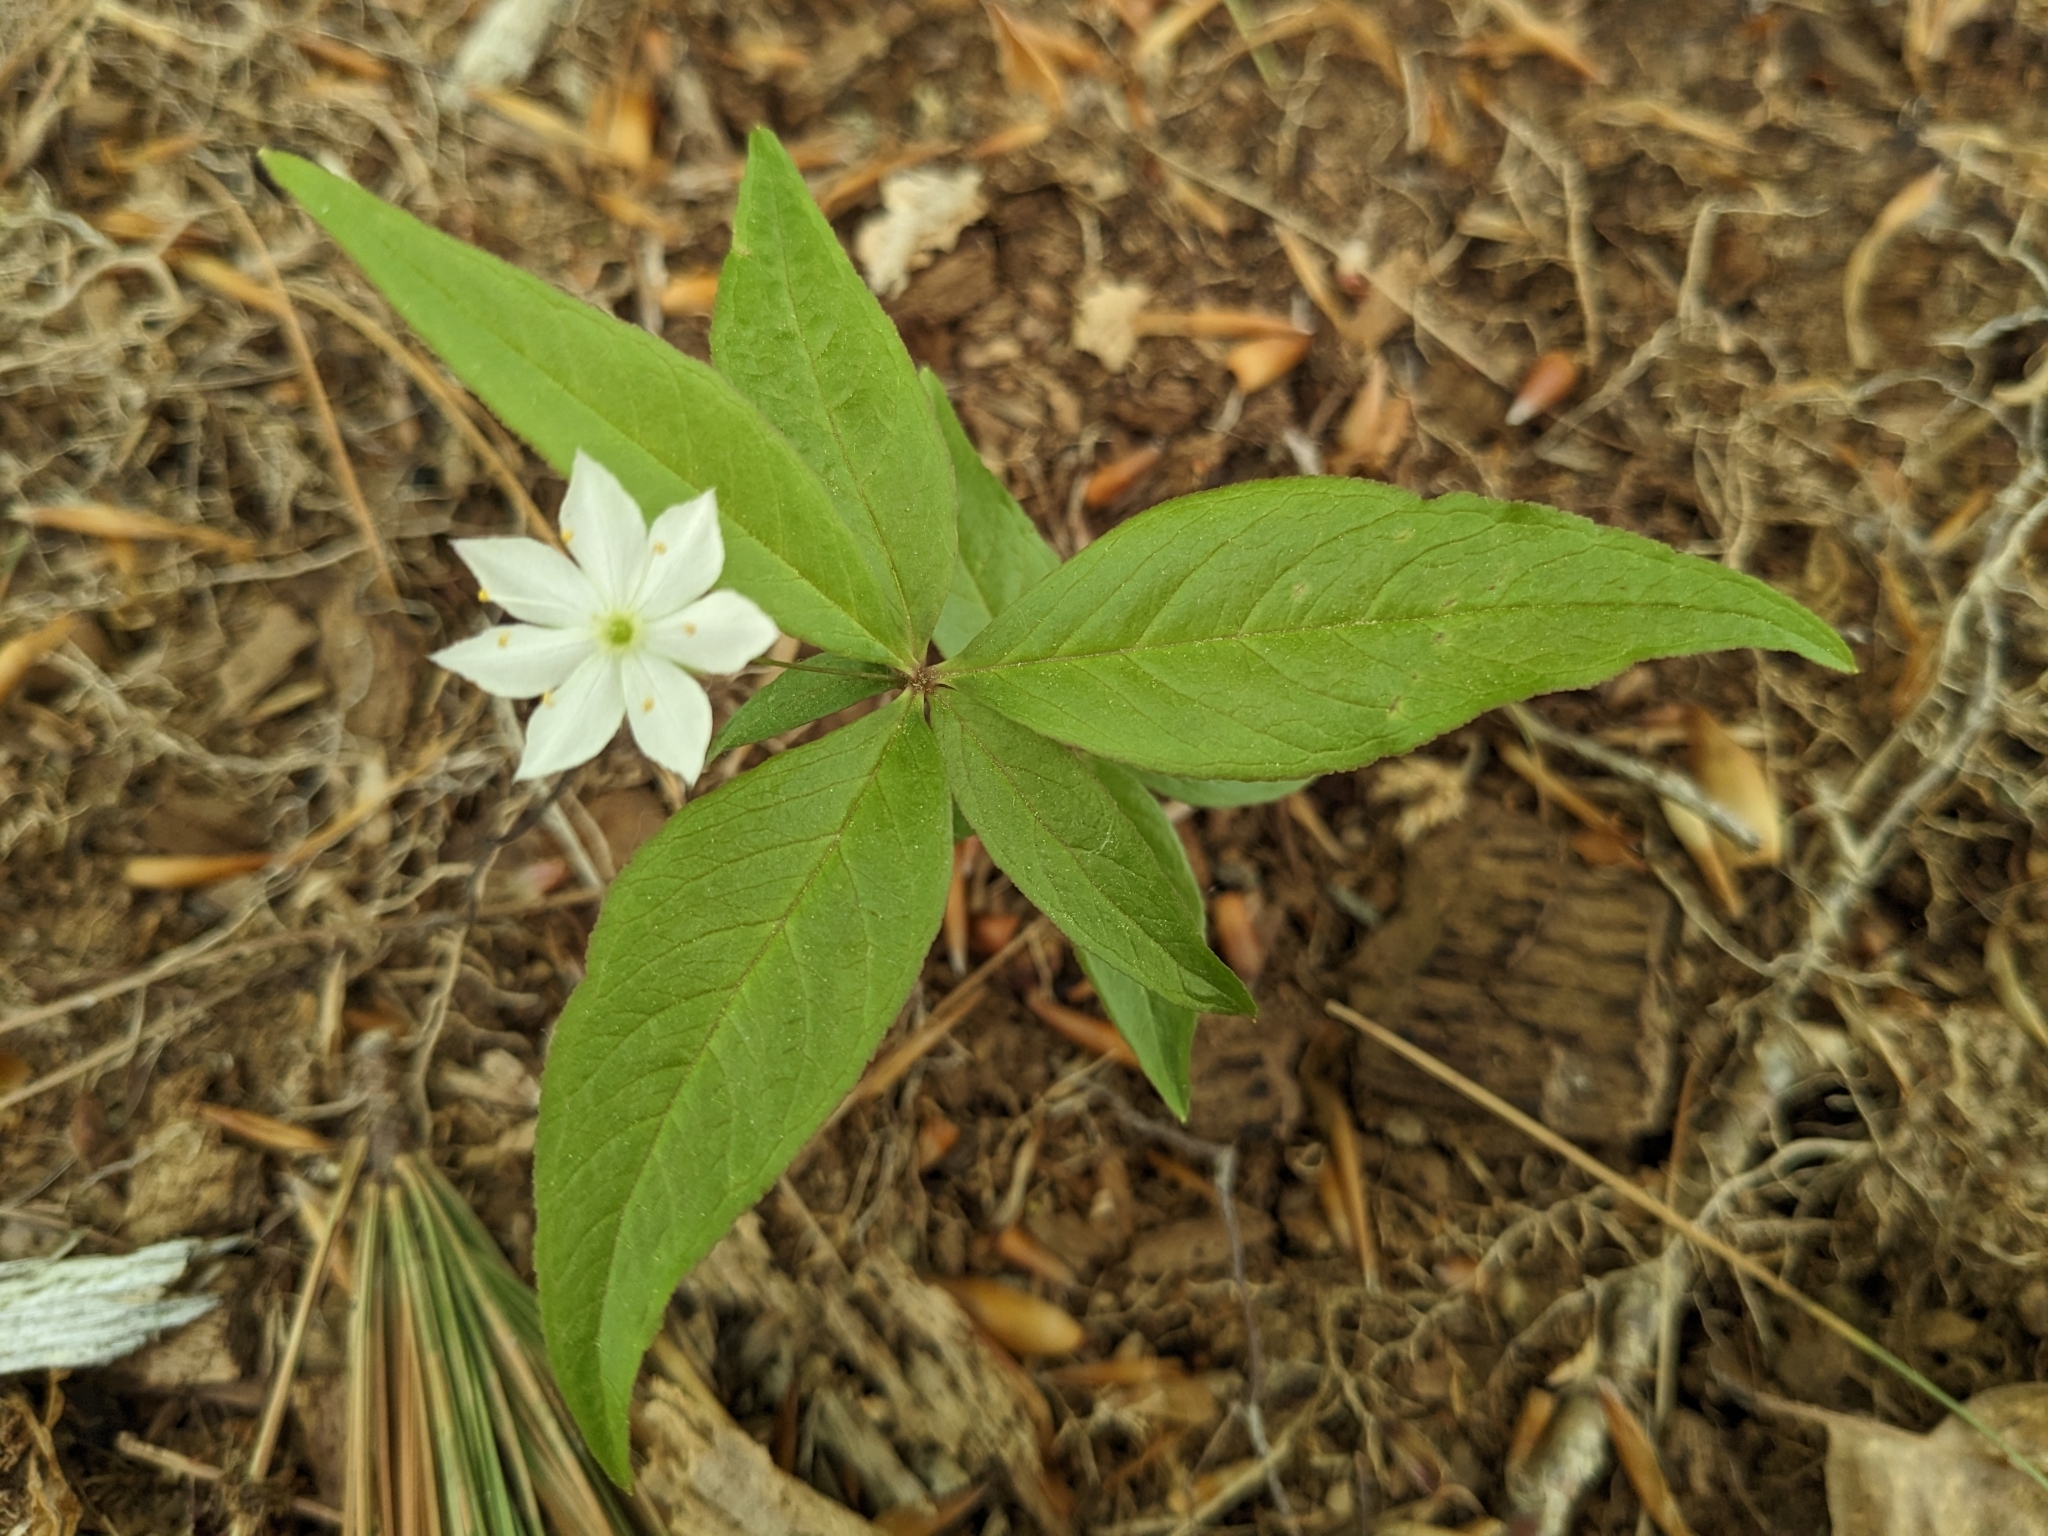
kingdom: Plantae
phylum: Tracheophyta
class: Magnoliopsida
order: Ericales
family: Primulaceae
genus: Lysimachia
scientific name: Lysimachia borealis
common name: American starflower
